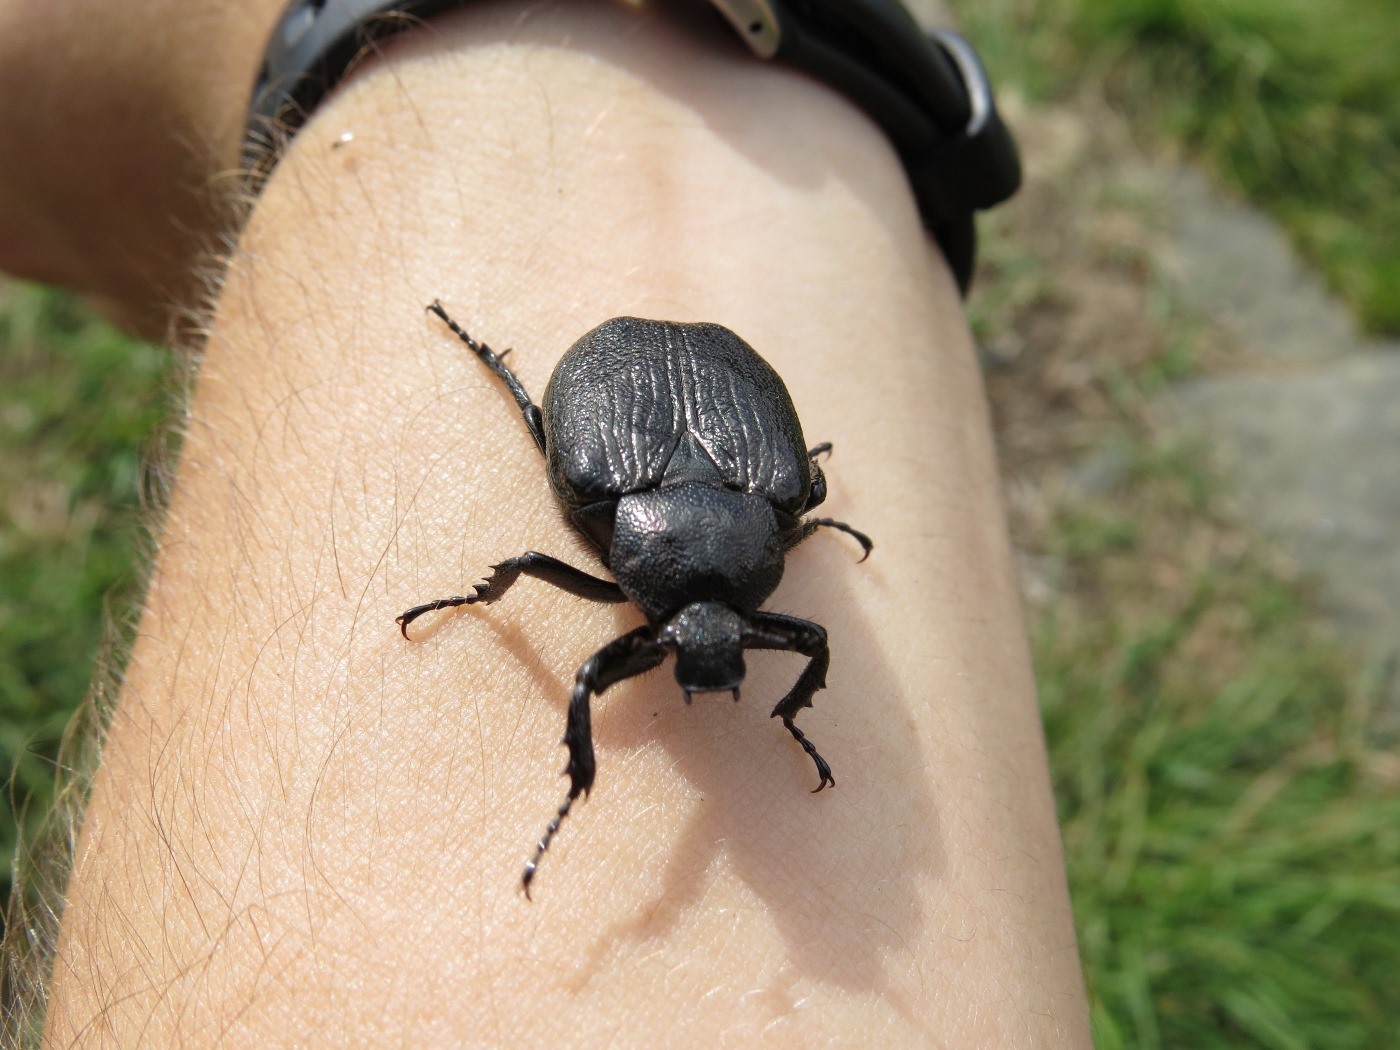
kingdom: Animalia
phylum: Arthropoda
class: Insecta
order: Coleoptera
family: Scarabaeidae
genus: Osmoderma
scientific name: Osmoderma scabra
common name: Rough hermit beetle
